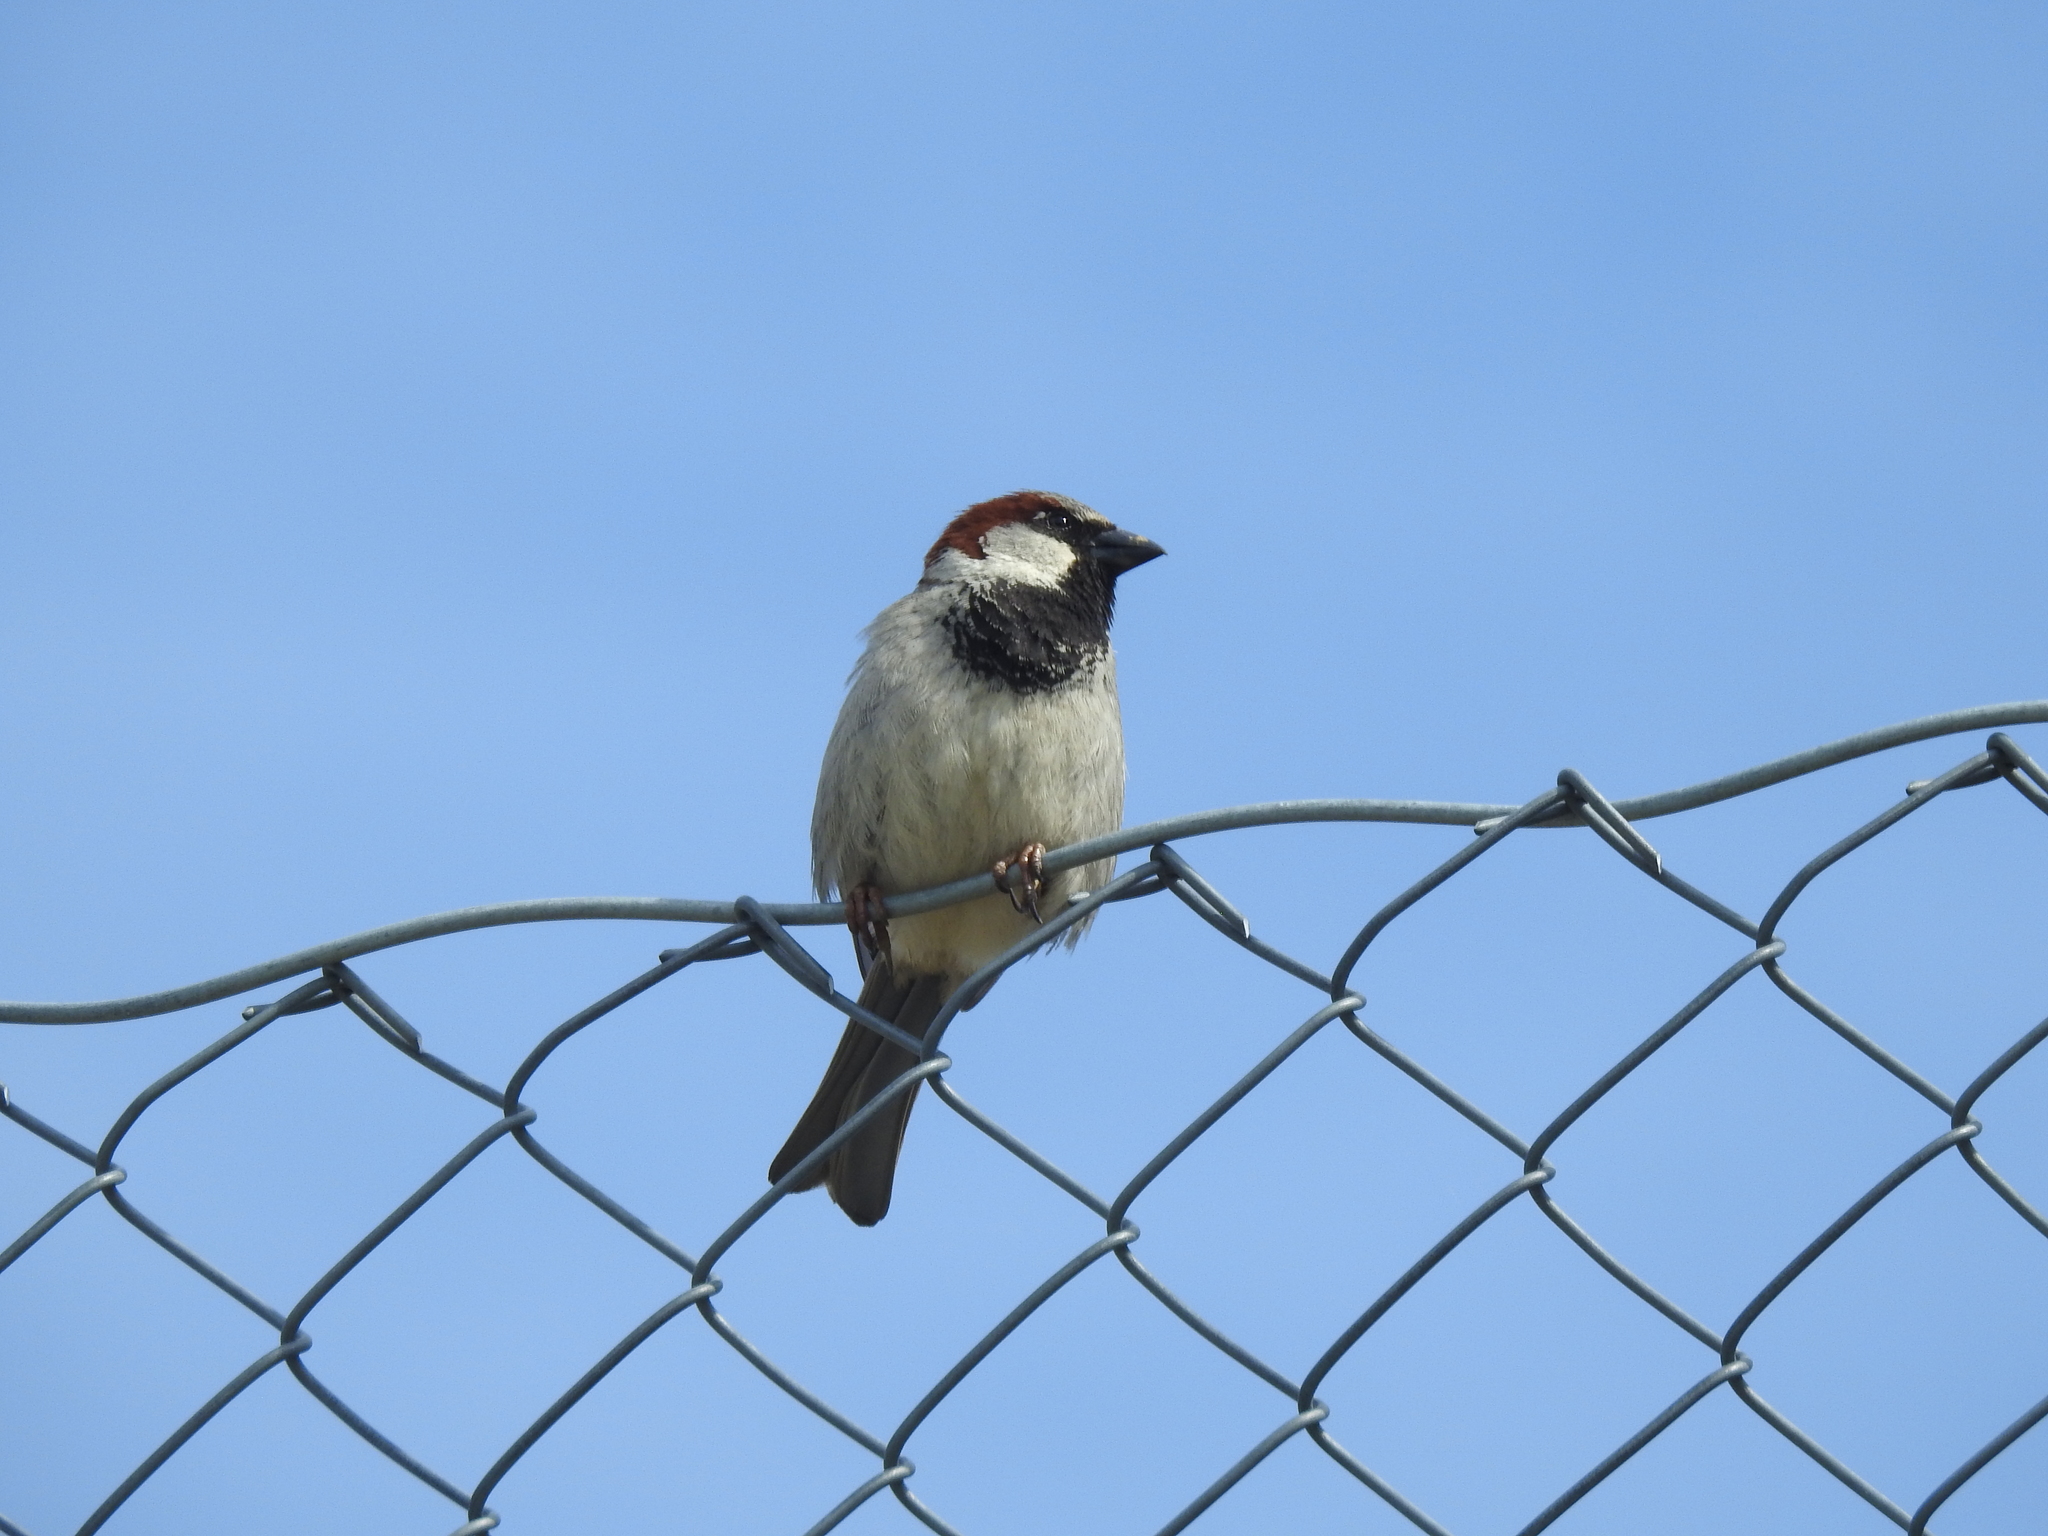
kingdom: Animalia
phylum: Chordata
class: Aves
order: Passeriformes
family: Passeridae
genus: Passer
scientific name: Passer domesticus
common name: House sparrow
